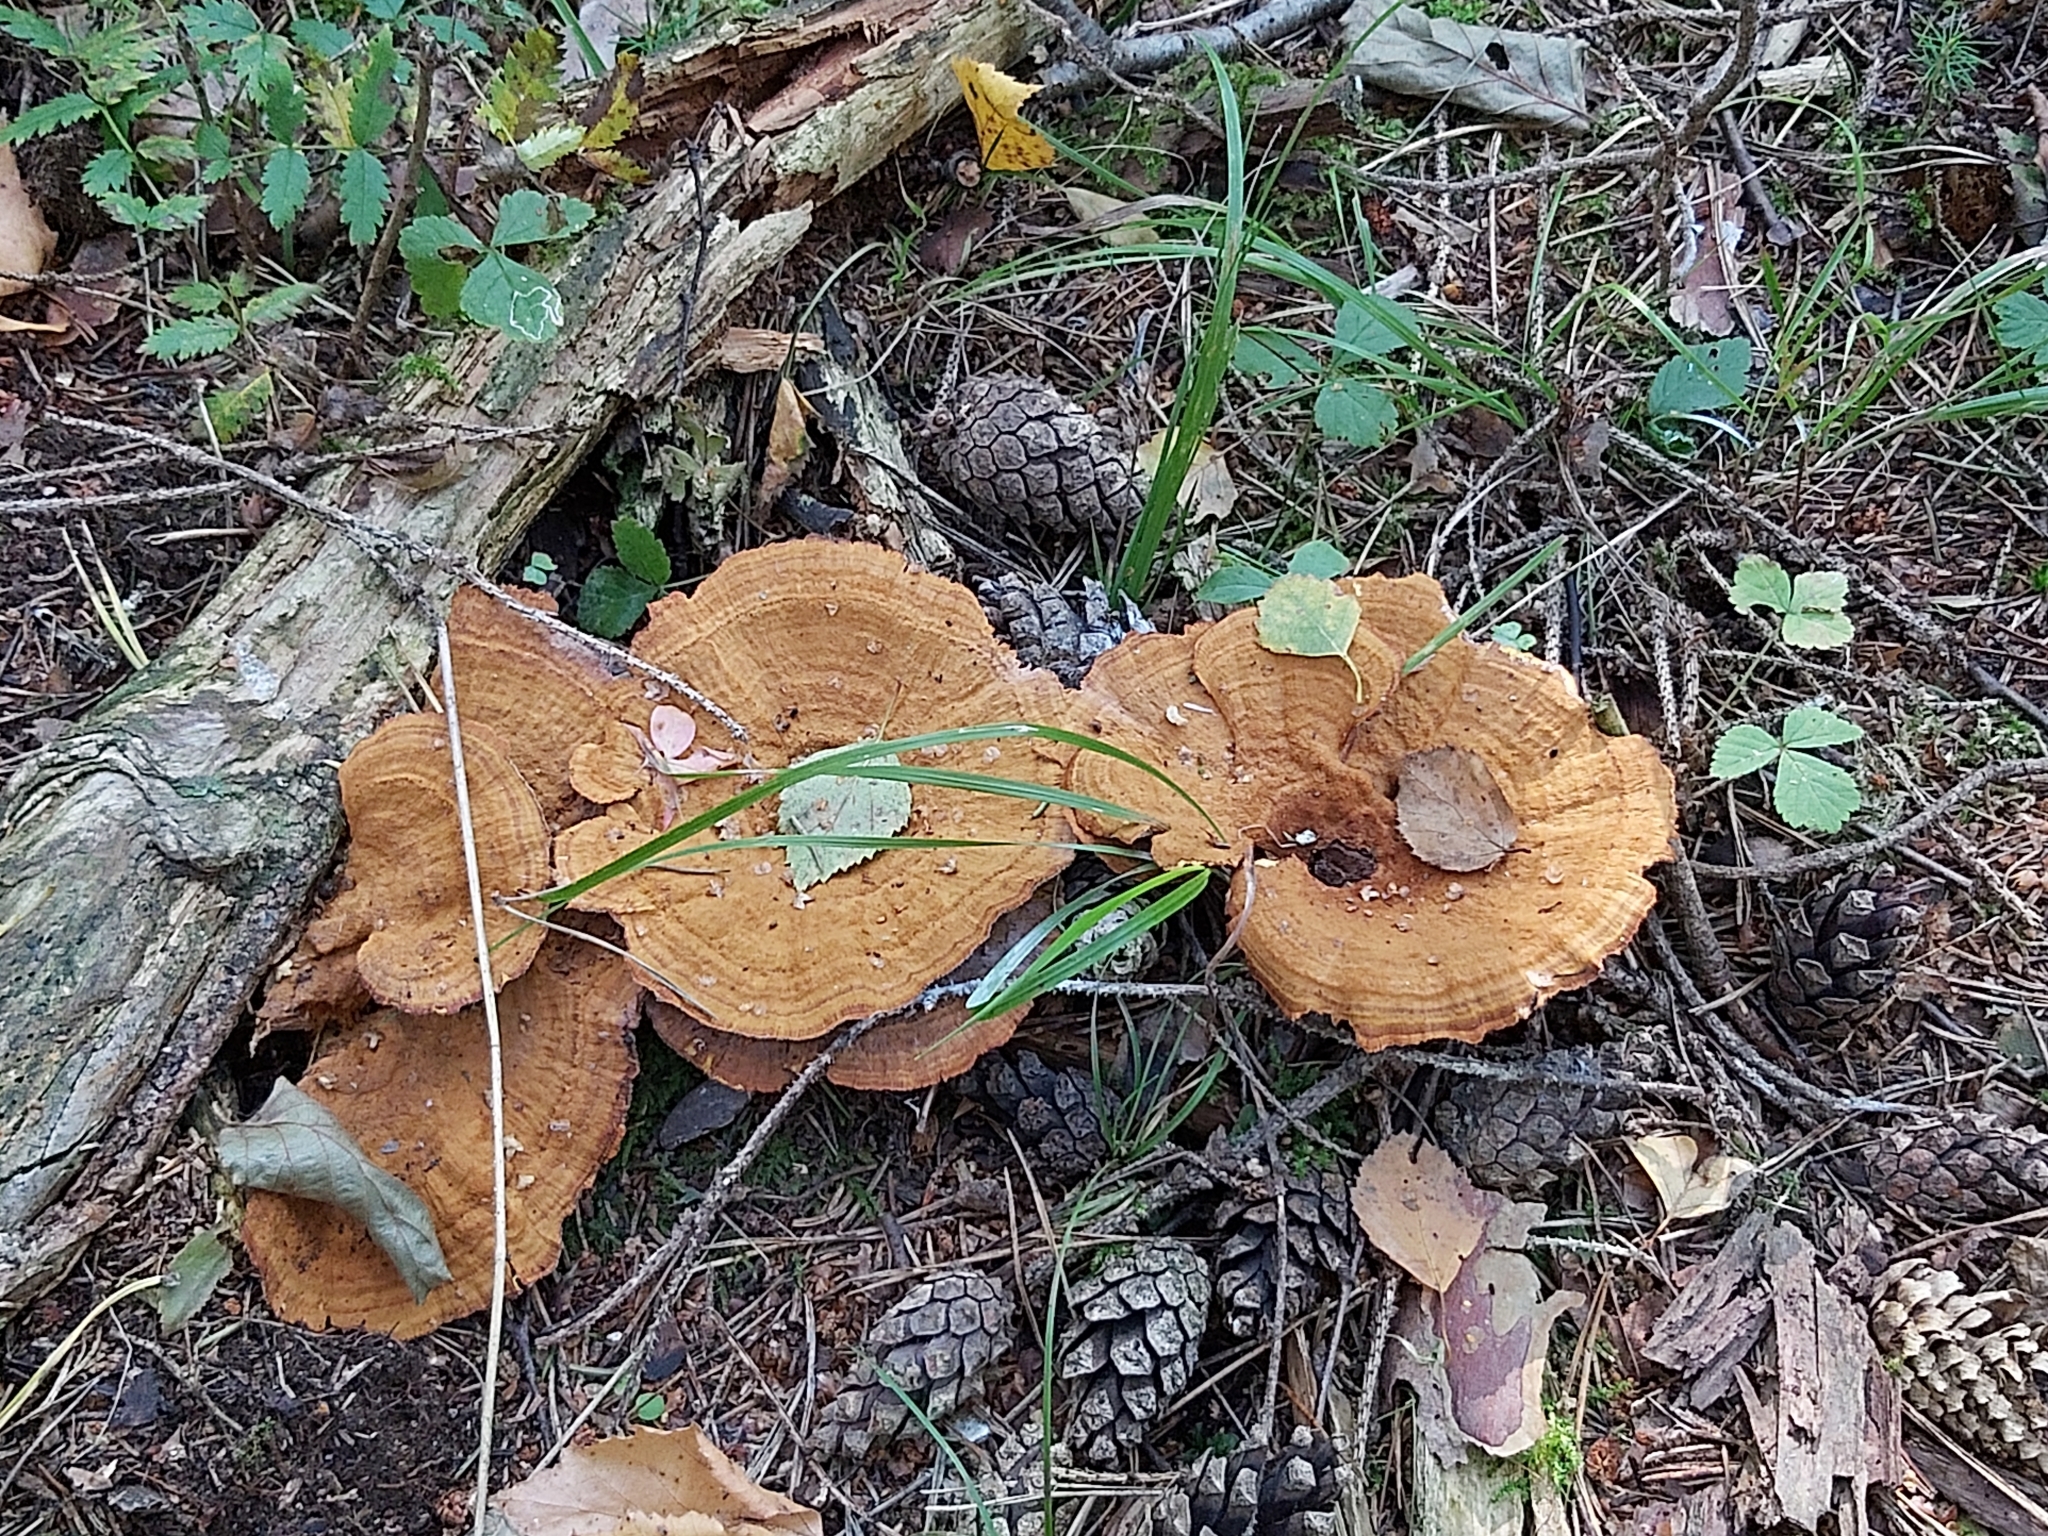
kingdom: Fungi
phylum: Basidiomycota
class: Agaricomycetes
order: Hymenochaetales
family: Hymenochaetaceae
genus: Coltricia
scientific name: Coltricia perennis
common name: Tiger's eye
